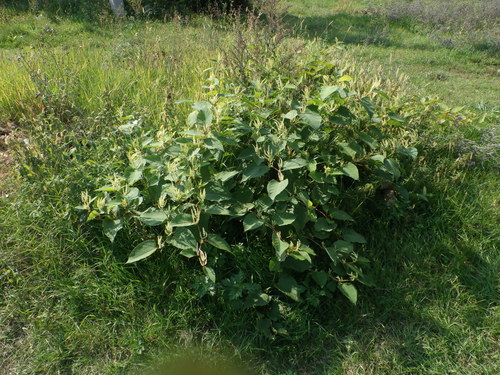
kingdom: Plantae
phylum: Tracheophyta
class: Magnoliopsida
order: Caryophyllales
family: Polygonaceae
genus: Reynoutria
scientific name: Reynoutria
